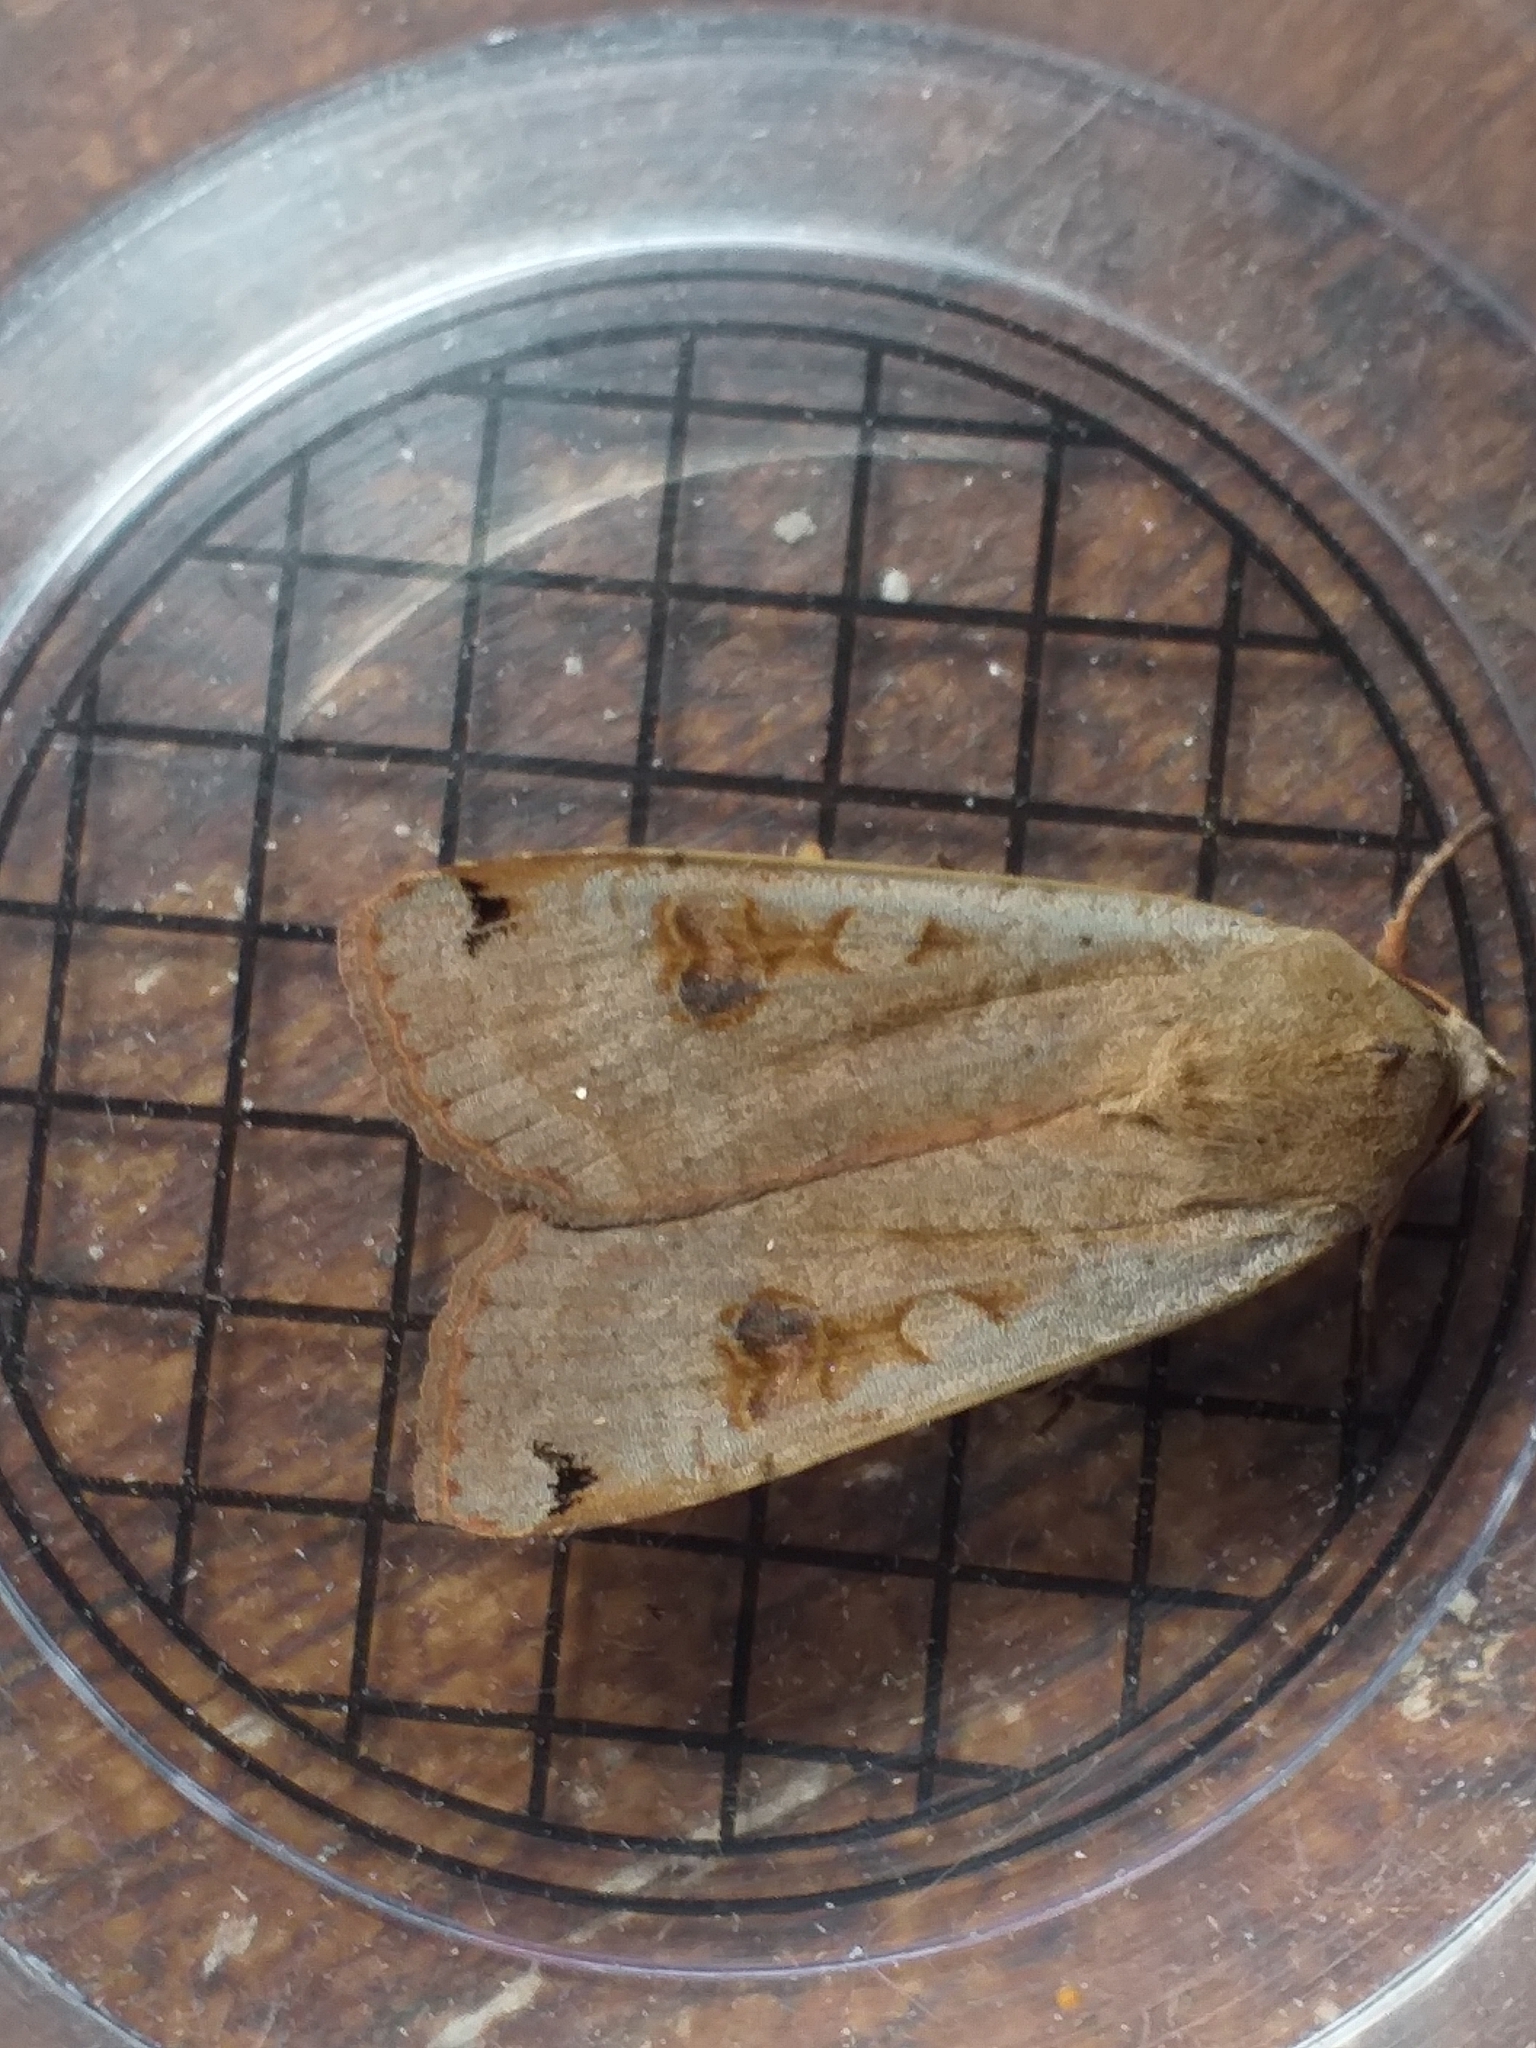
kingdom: Animalia
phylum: Arthropoda
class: Insecta
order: Lepidoptera
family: Noctuidae
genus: Noctua
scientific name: Noctua pronuba
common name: Large yellow underwing
